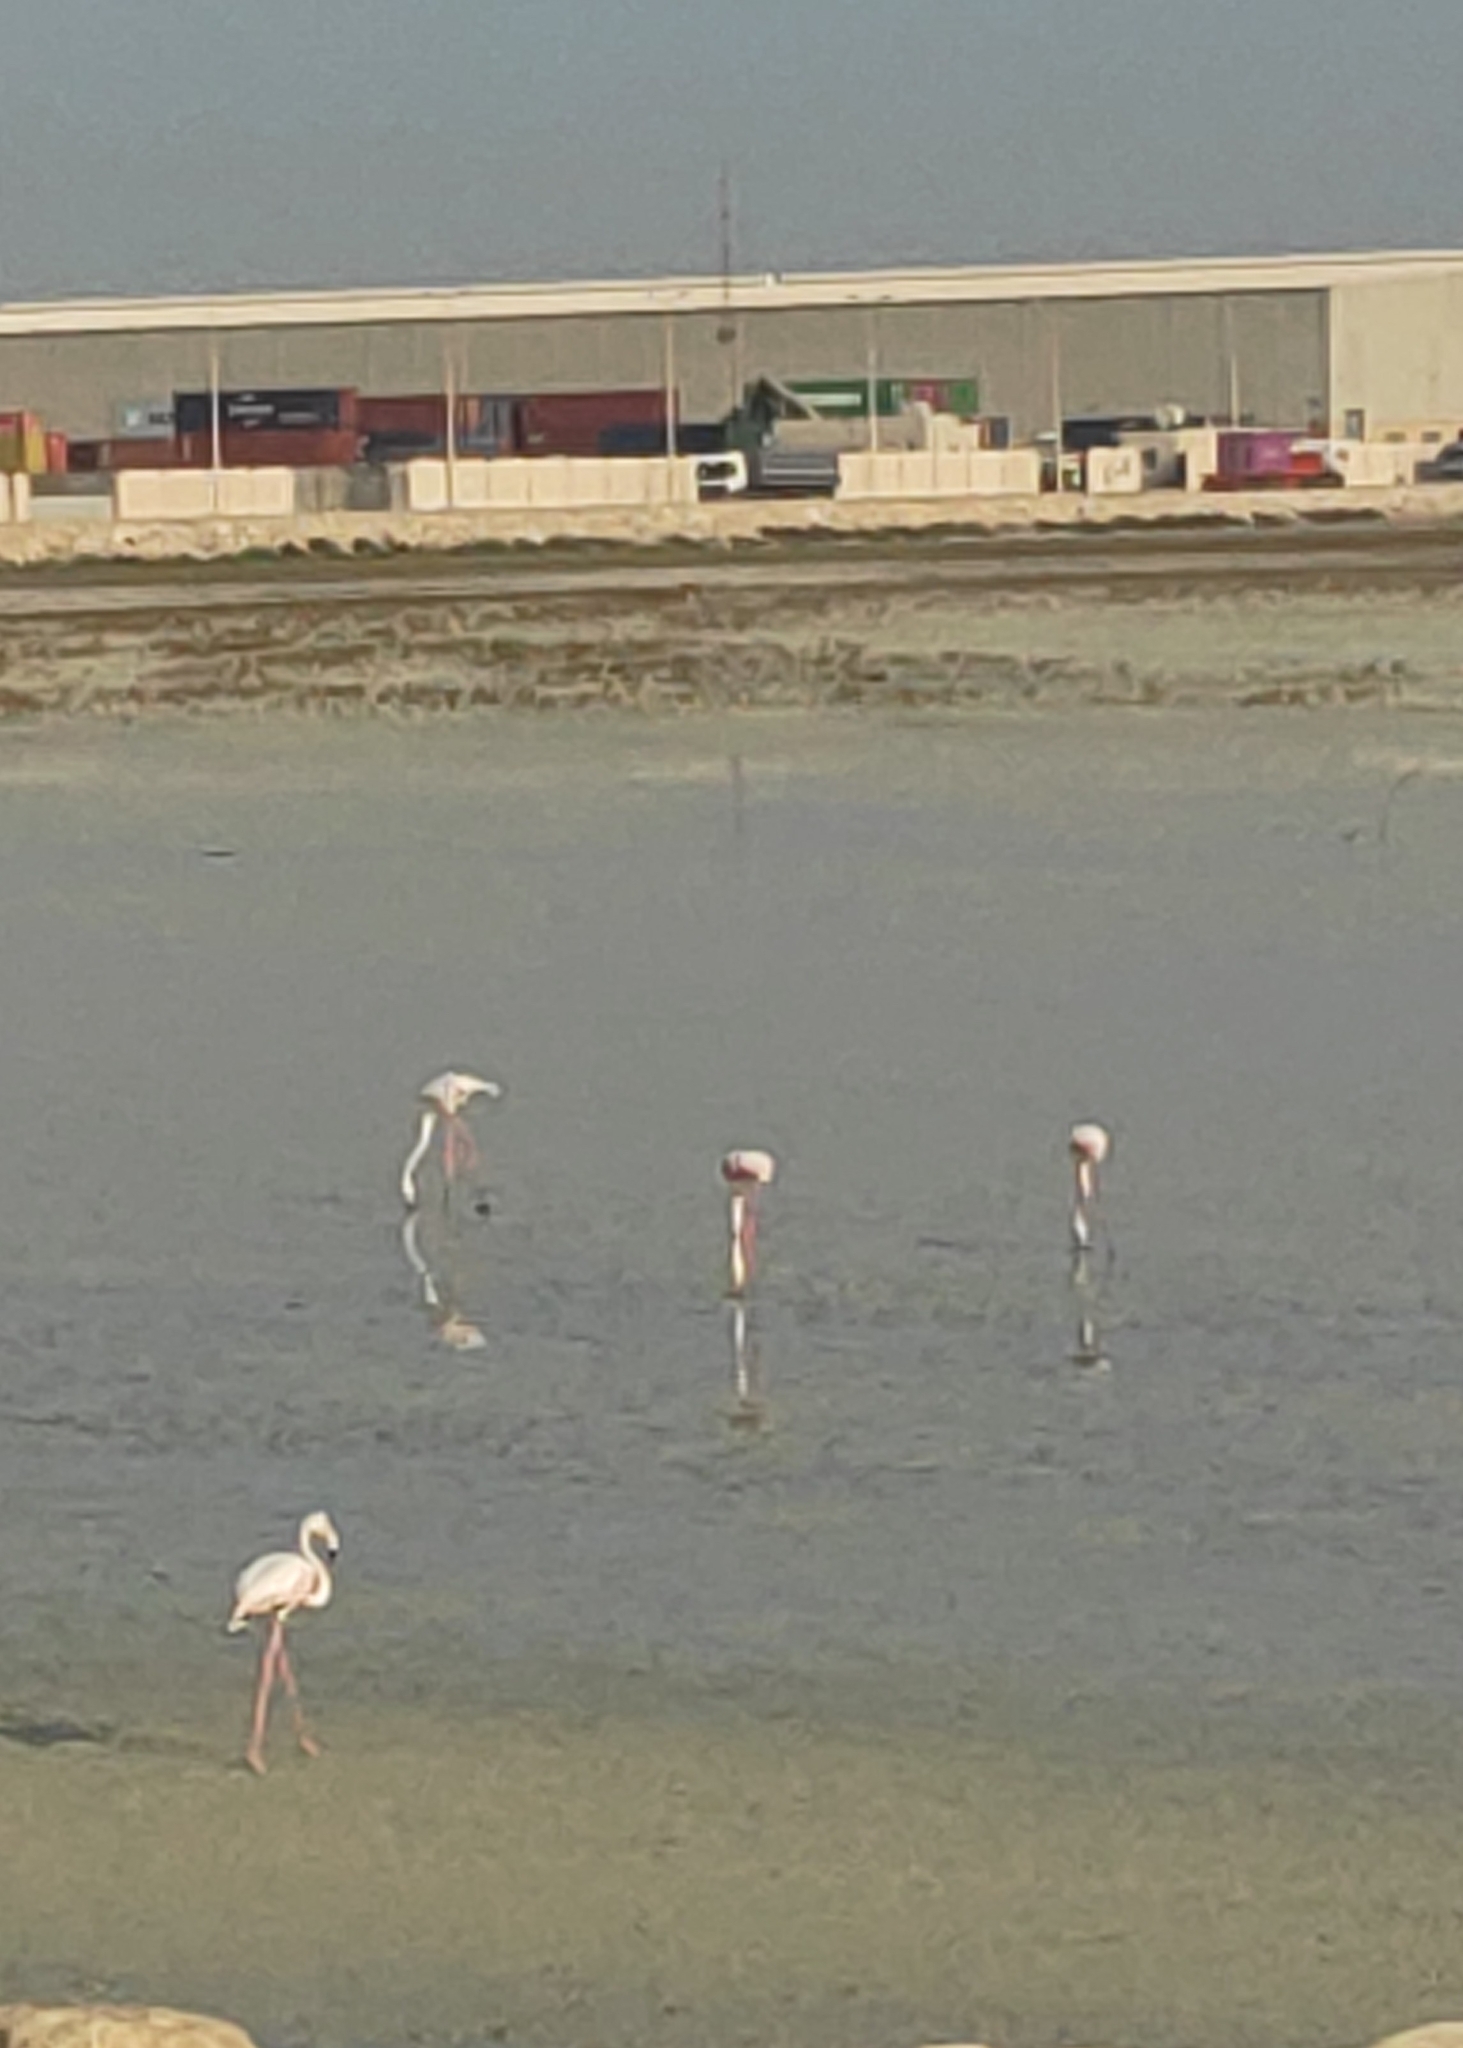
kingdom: Animalia
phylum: Chordata
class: Aves
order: Phoenicopteriformes
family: Phoenicopteridae
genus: Phoenicopterus
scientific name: Phoenicopterus roseus
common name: Greater flamingo
